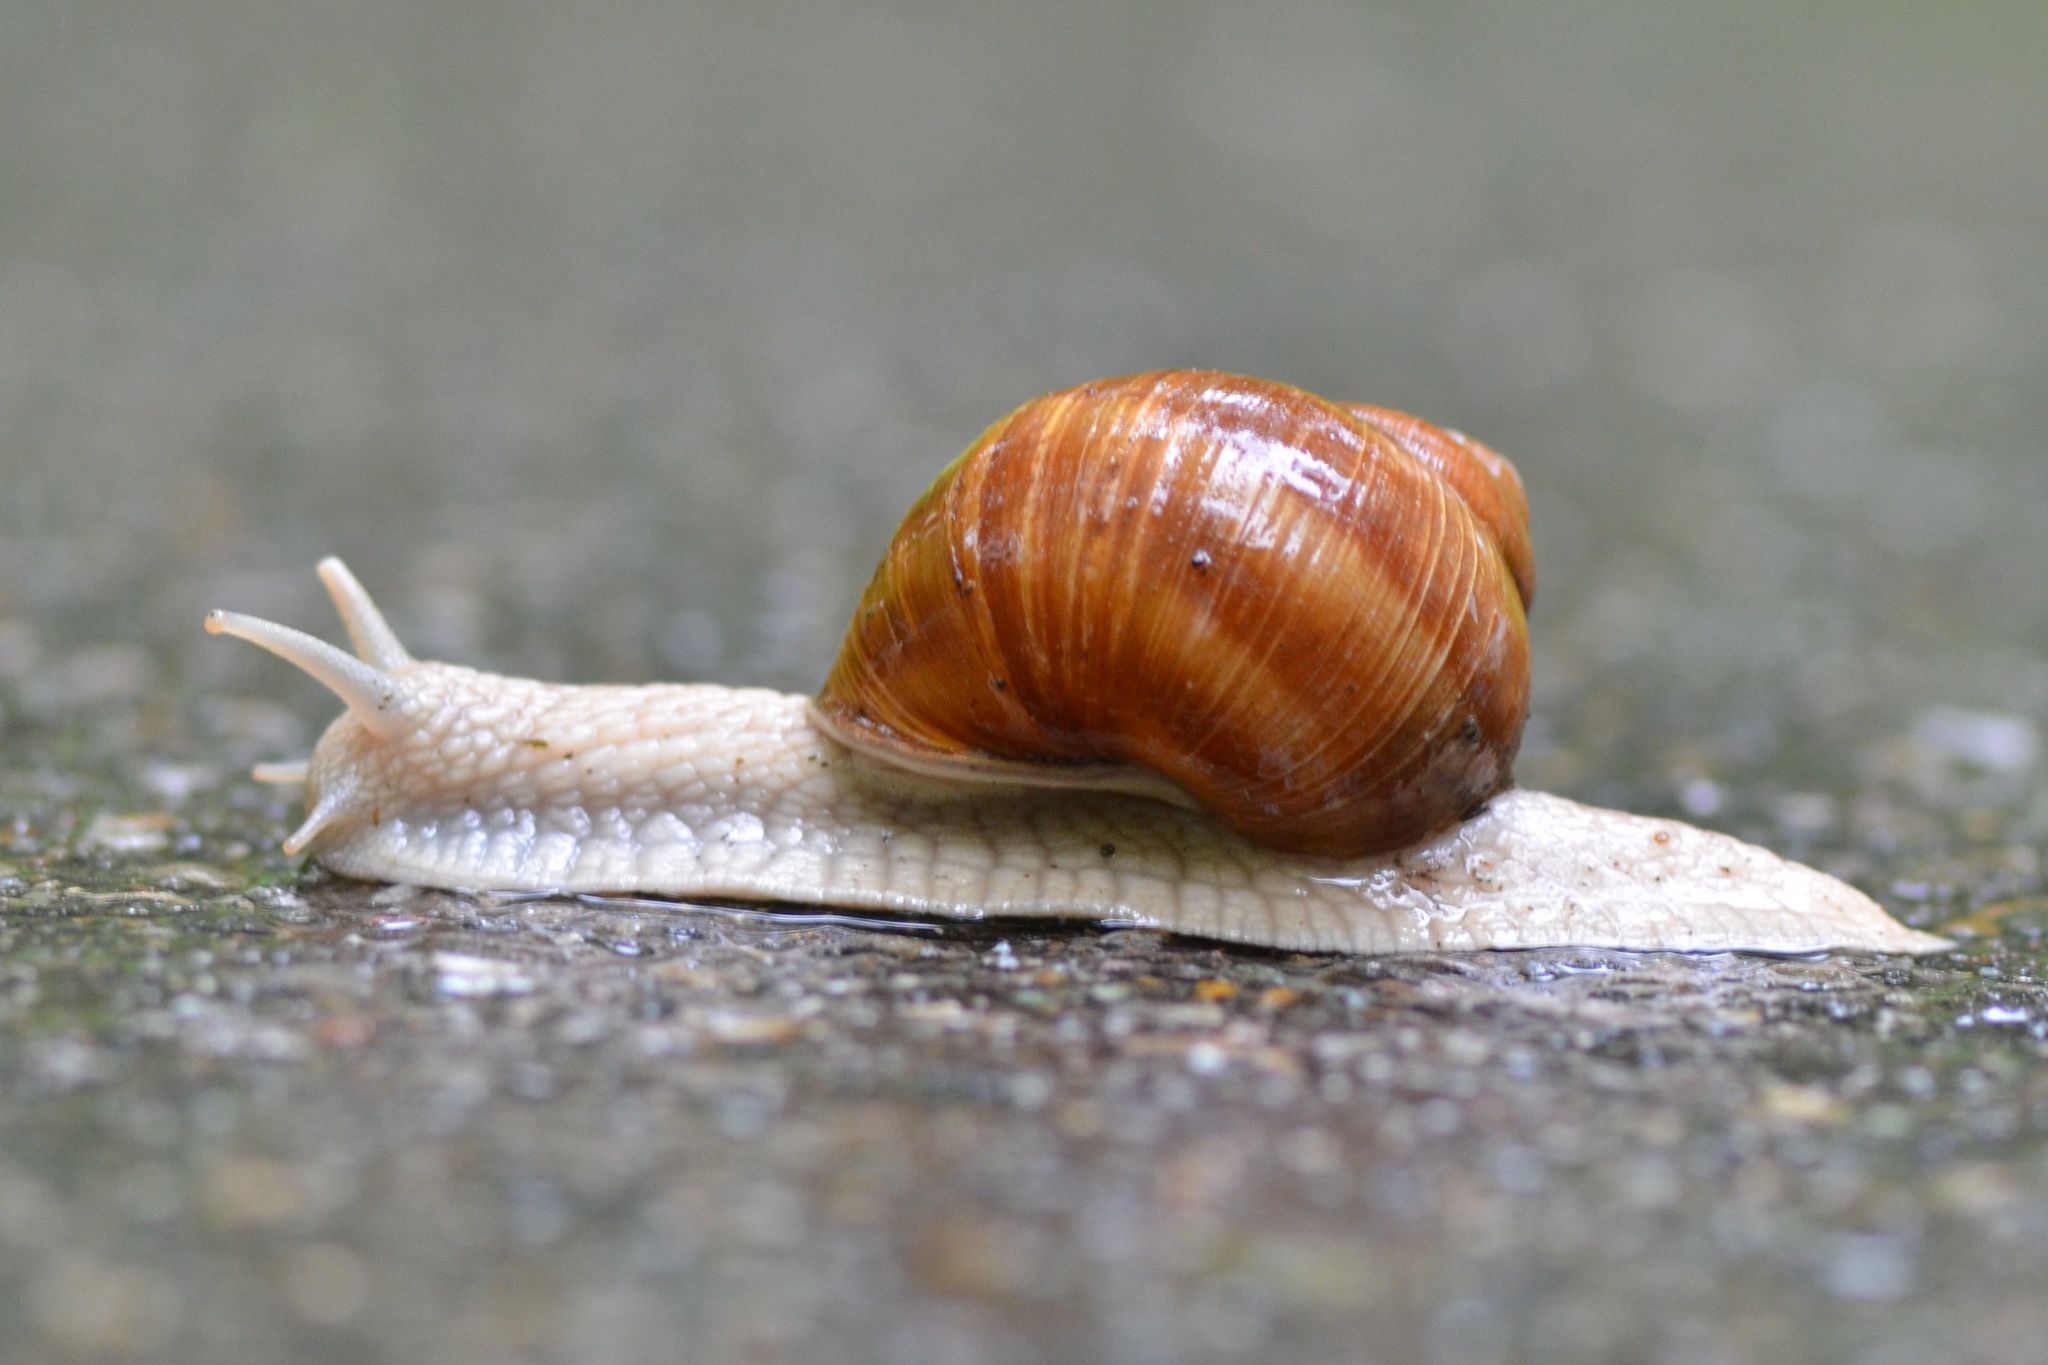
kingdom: Animalia
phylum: Mollusca
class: Gastropoda
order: Stylommatophora
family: Helicidae
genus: Helix
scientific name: Helix pomatia
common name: Roman snail
